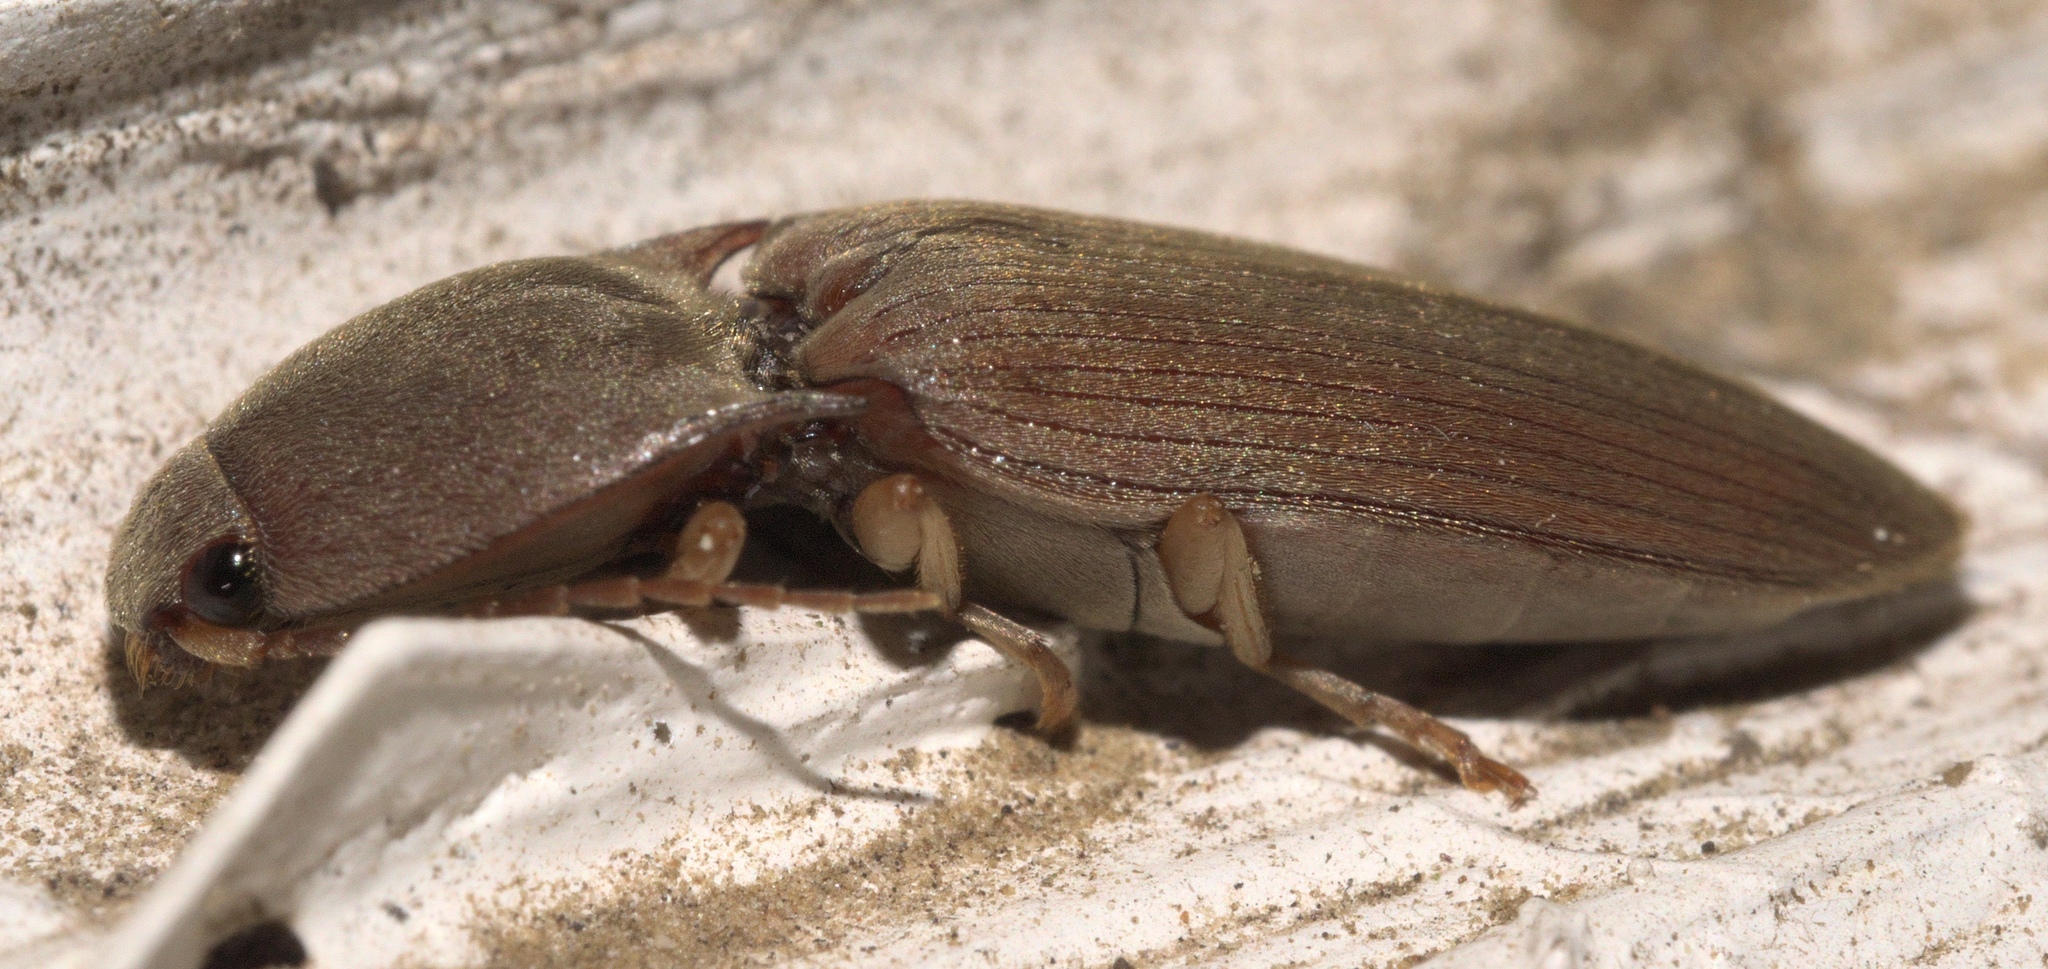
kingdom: Animalia
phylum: Arthropoda
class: Insecta
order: Coleoptera
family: Elateridae
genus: Monocrepidius
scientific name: Monocrepidius lividus
